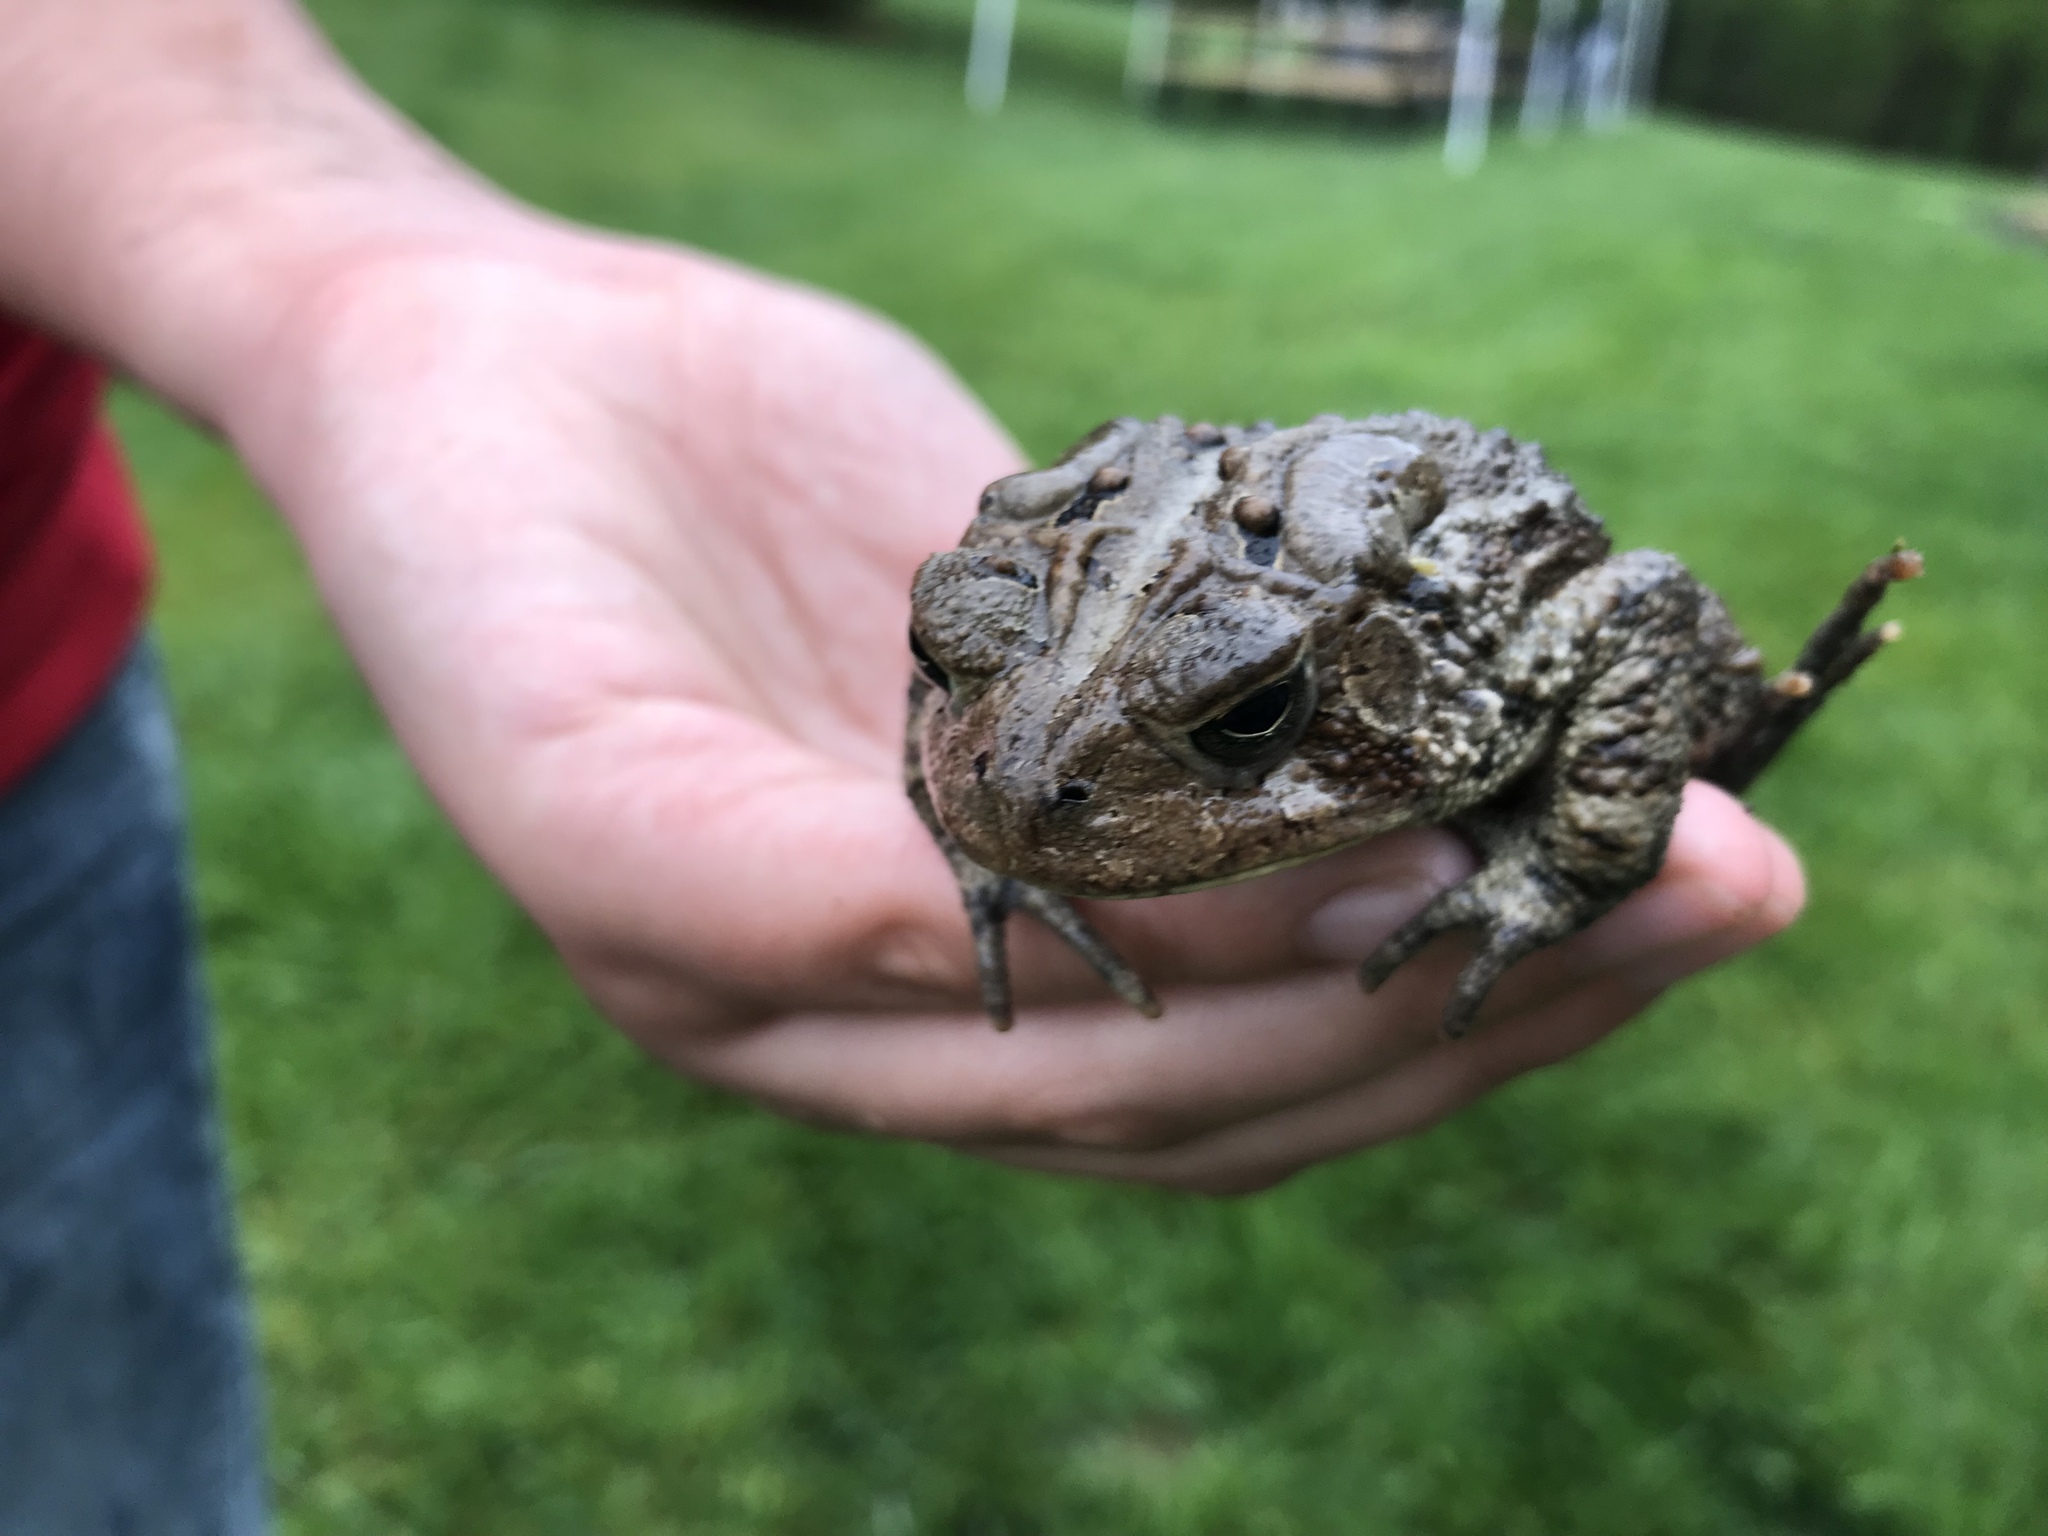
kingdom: Animalia
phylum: Chordata
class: Amphibia
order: Anura
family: Bufonidae
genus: Anaxyrus
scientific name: Anaxyrus americanus
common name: American toad
